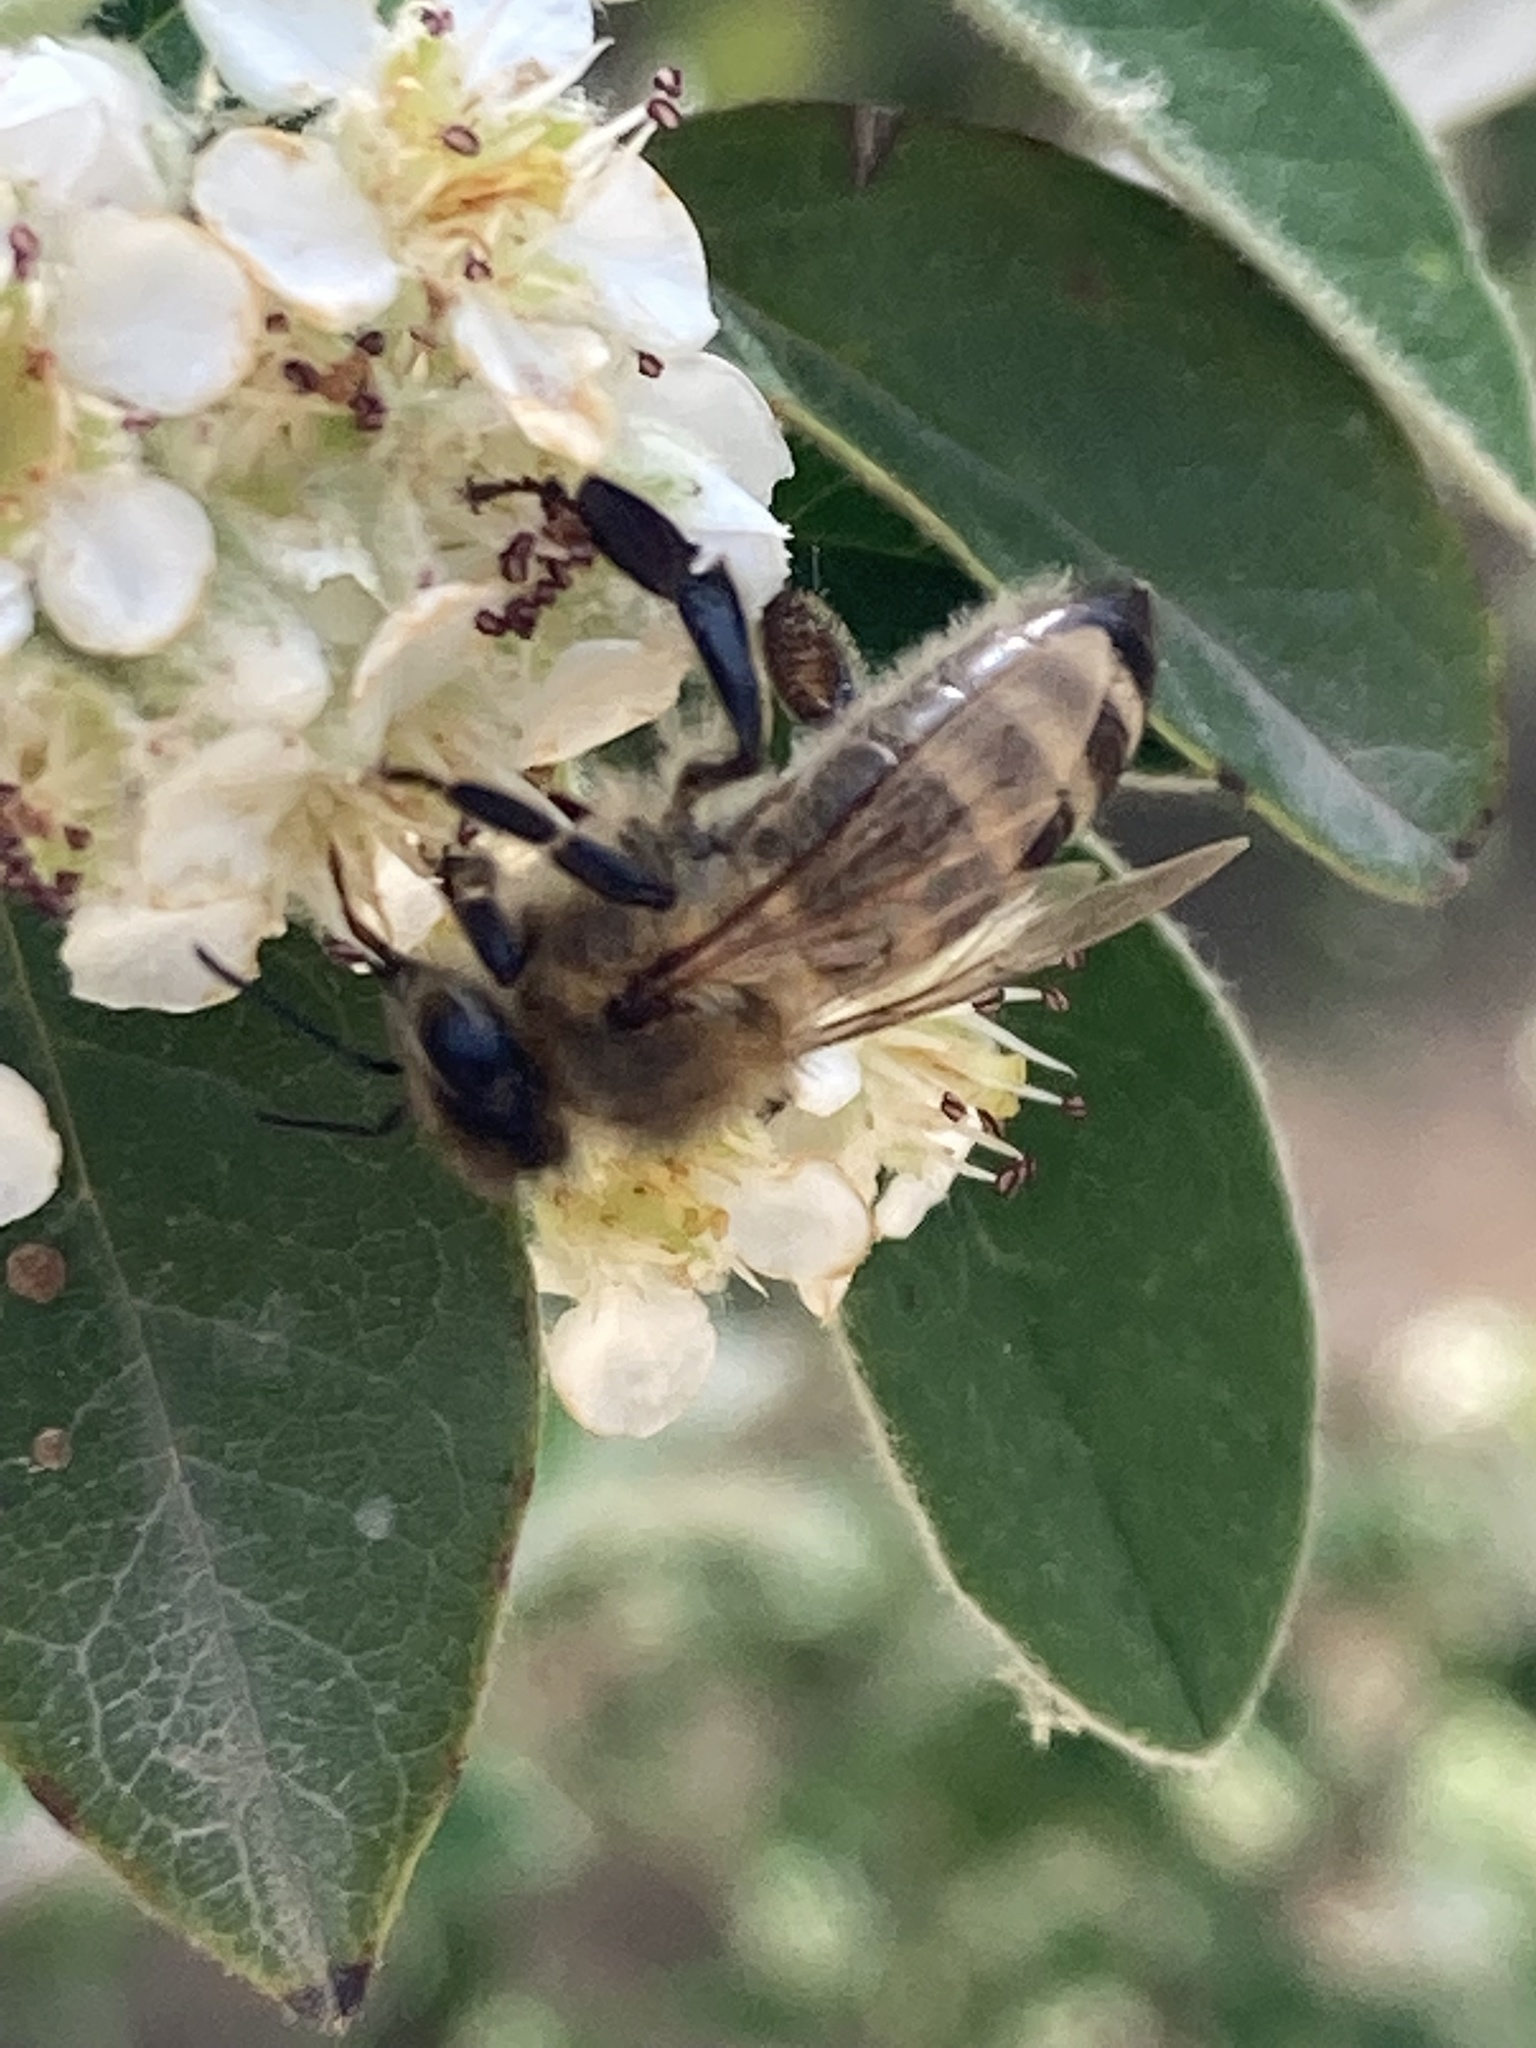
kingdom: Animalia
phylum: Arthropoda
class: Insecta
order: Hymenoptera
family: Apidae
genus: Apis
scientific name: Apis mellifera
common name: Honey bee
